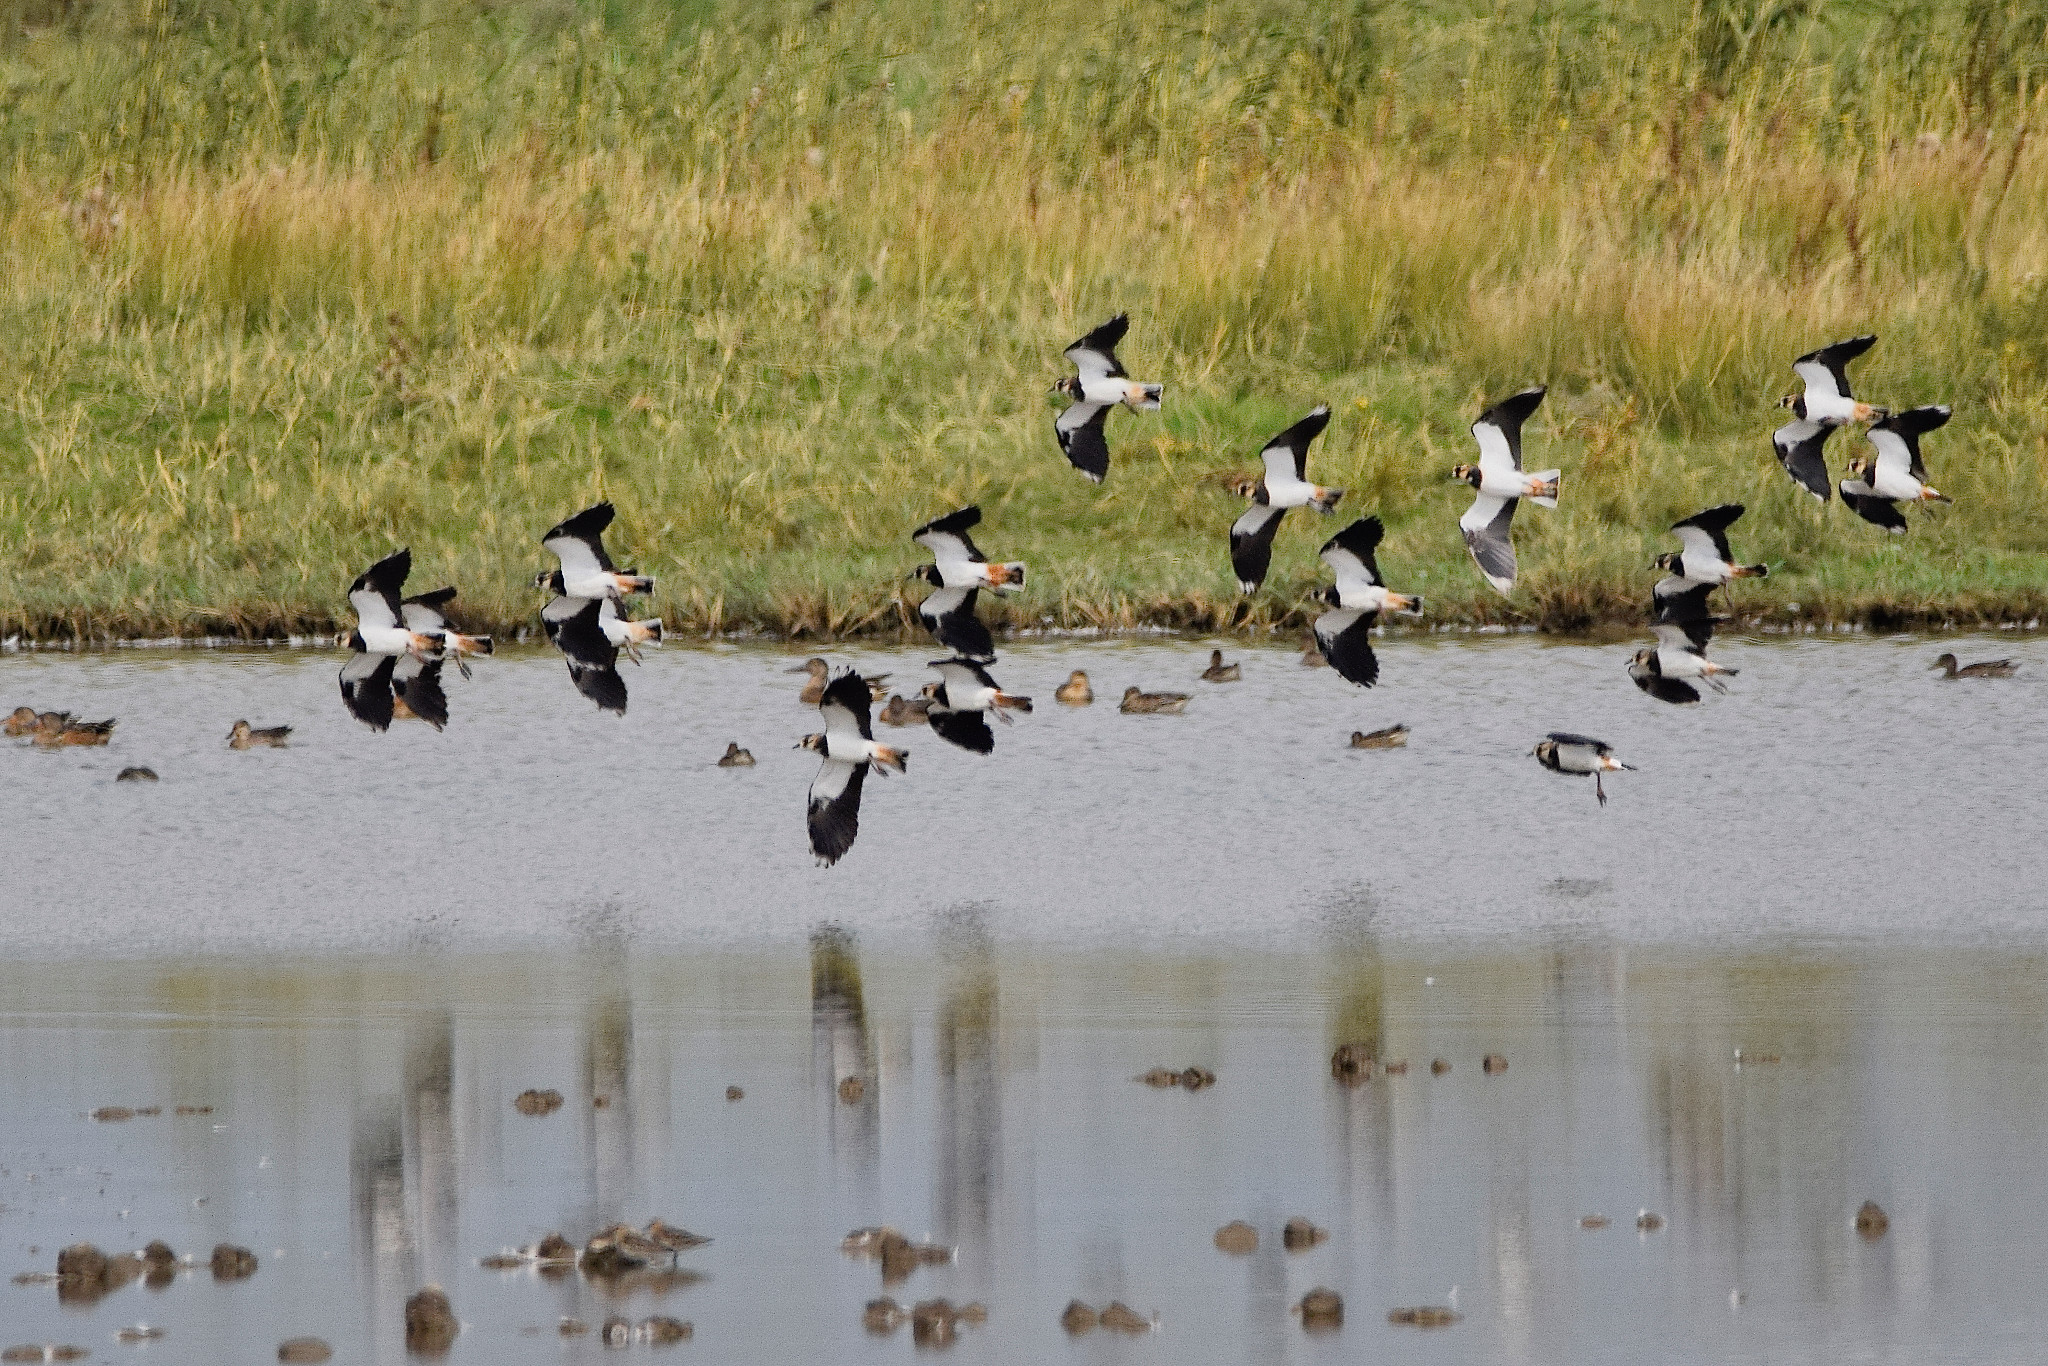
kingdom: Animalia
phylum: Chordata
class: Aves
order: Charadriiformes
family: Charadriidae
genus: Vanellus
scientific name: Vanellus vanellus
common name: Northern lapwing
